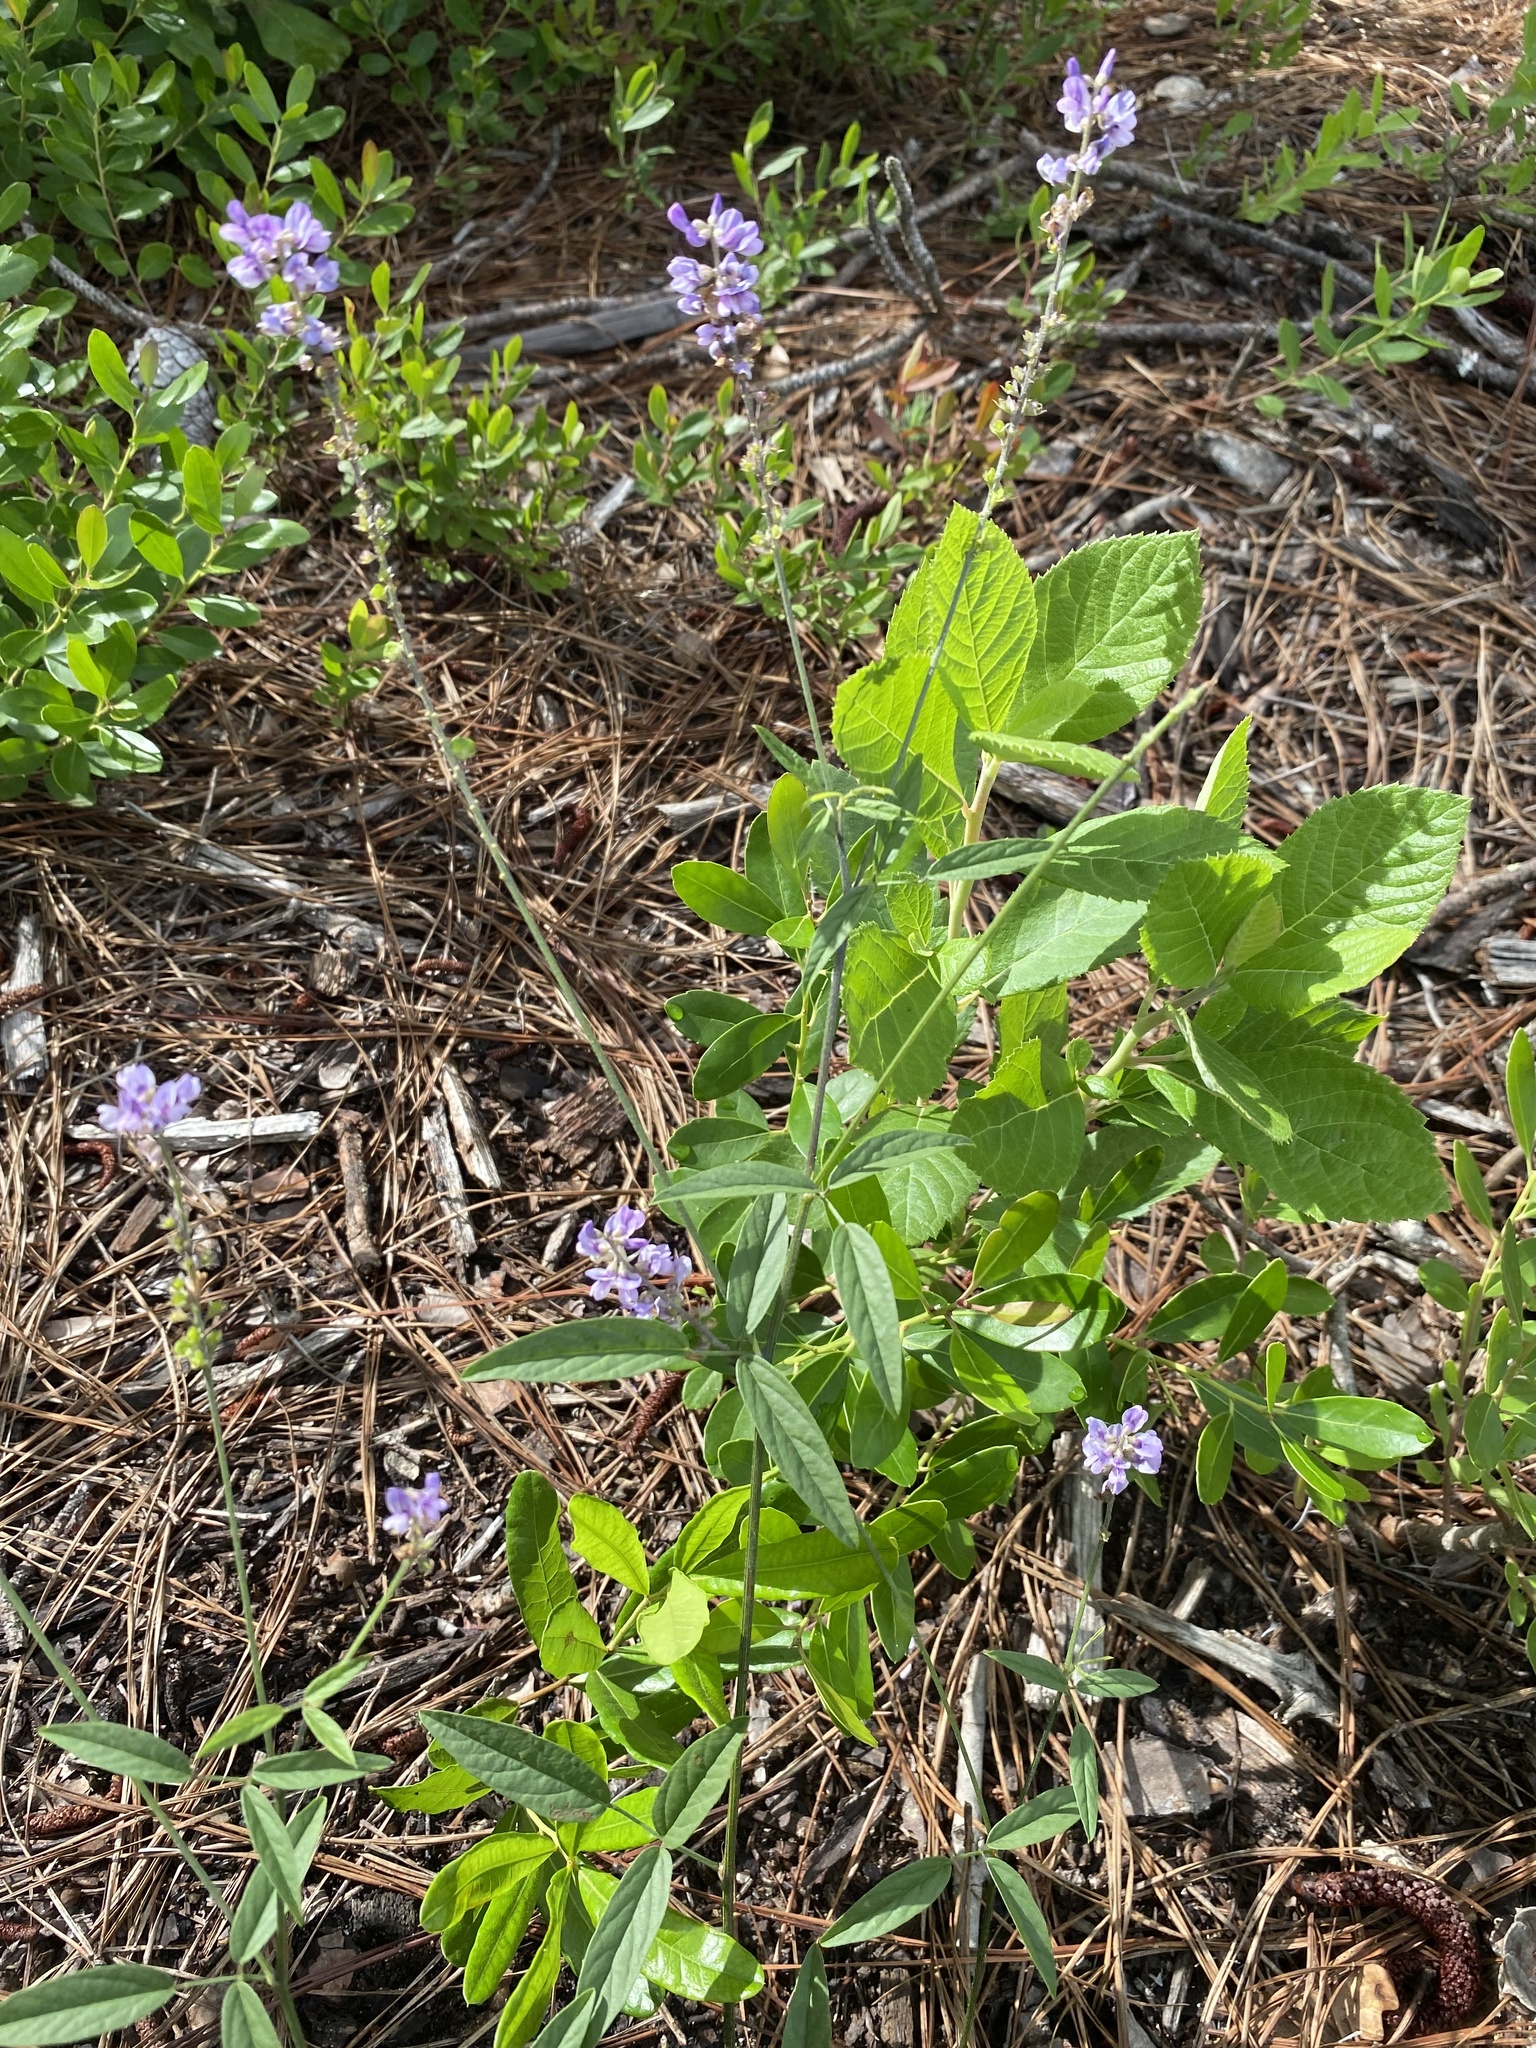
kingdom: Plantae
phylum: Tracheophyta
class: Magnoliopsida
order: Fabales
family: Fabaceae
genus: Orbexilum
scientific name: Orbexilum psoralioides
